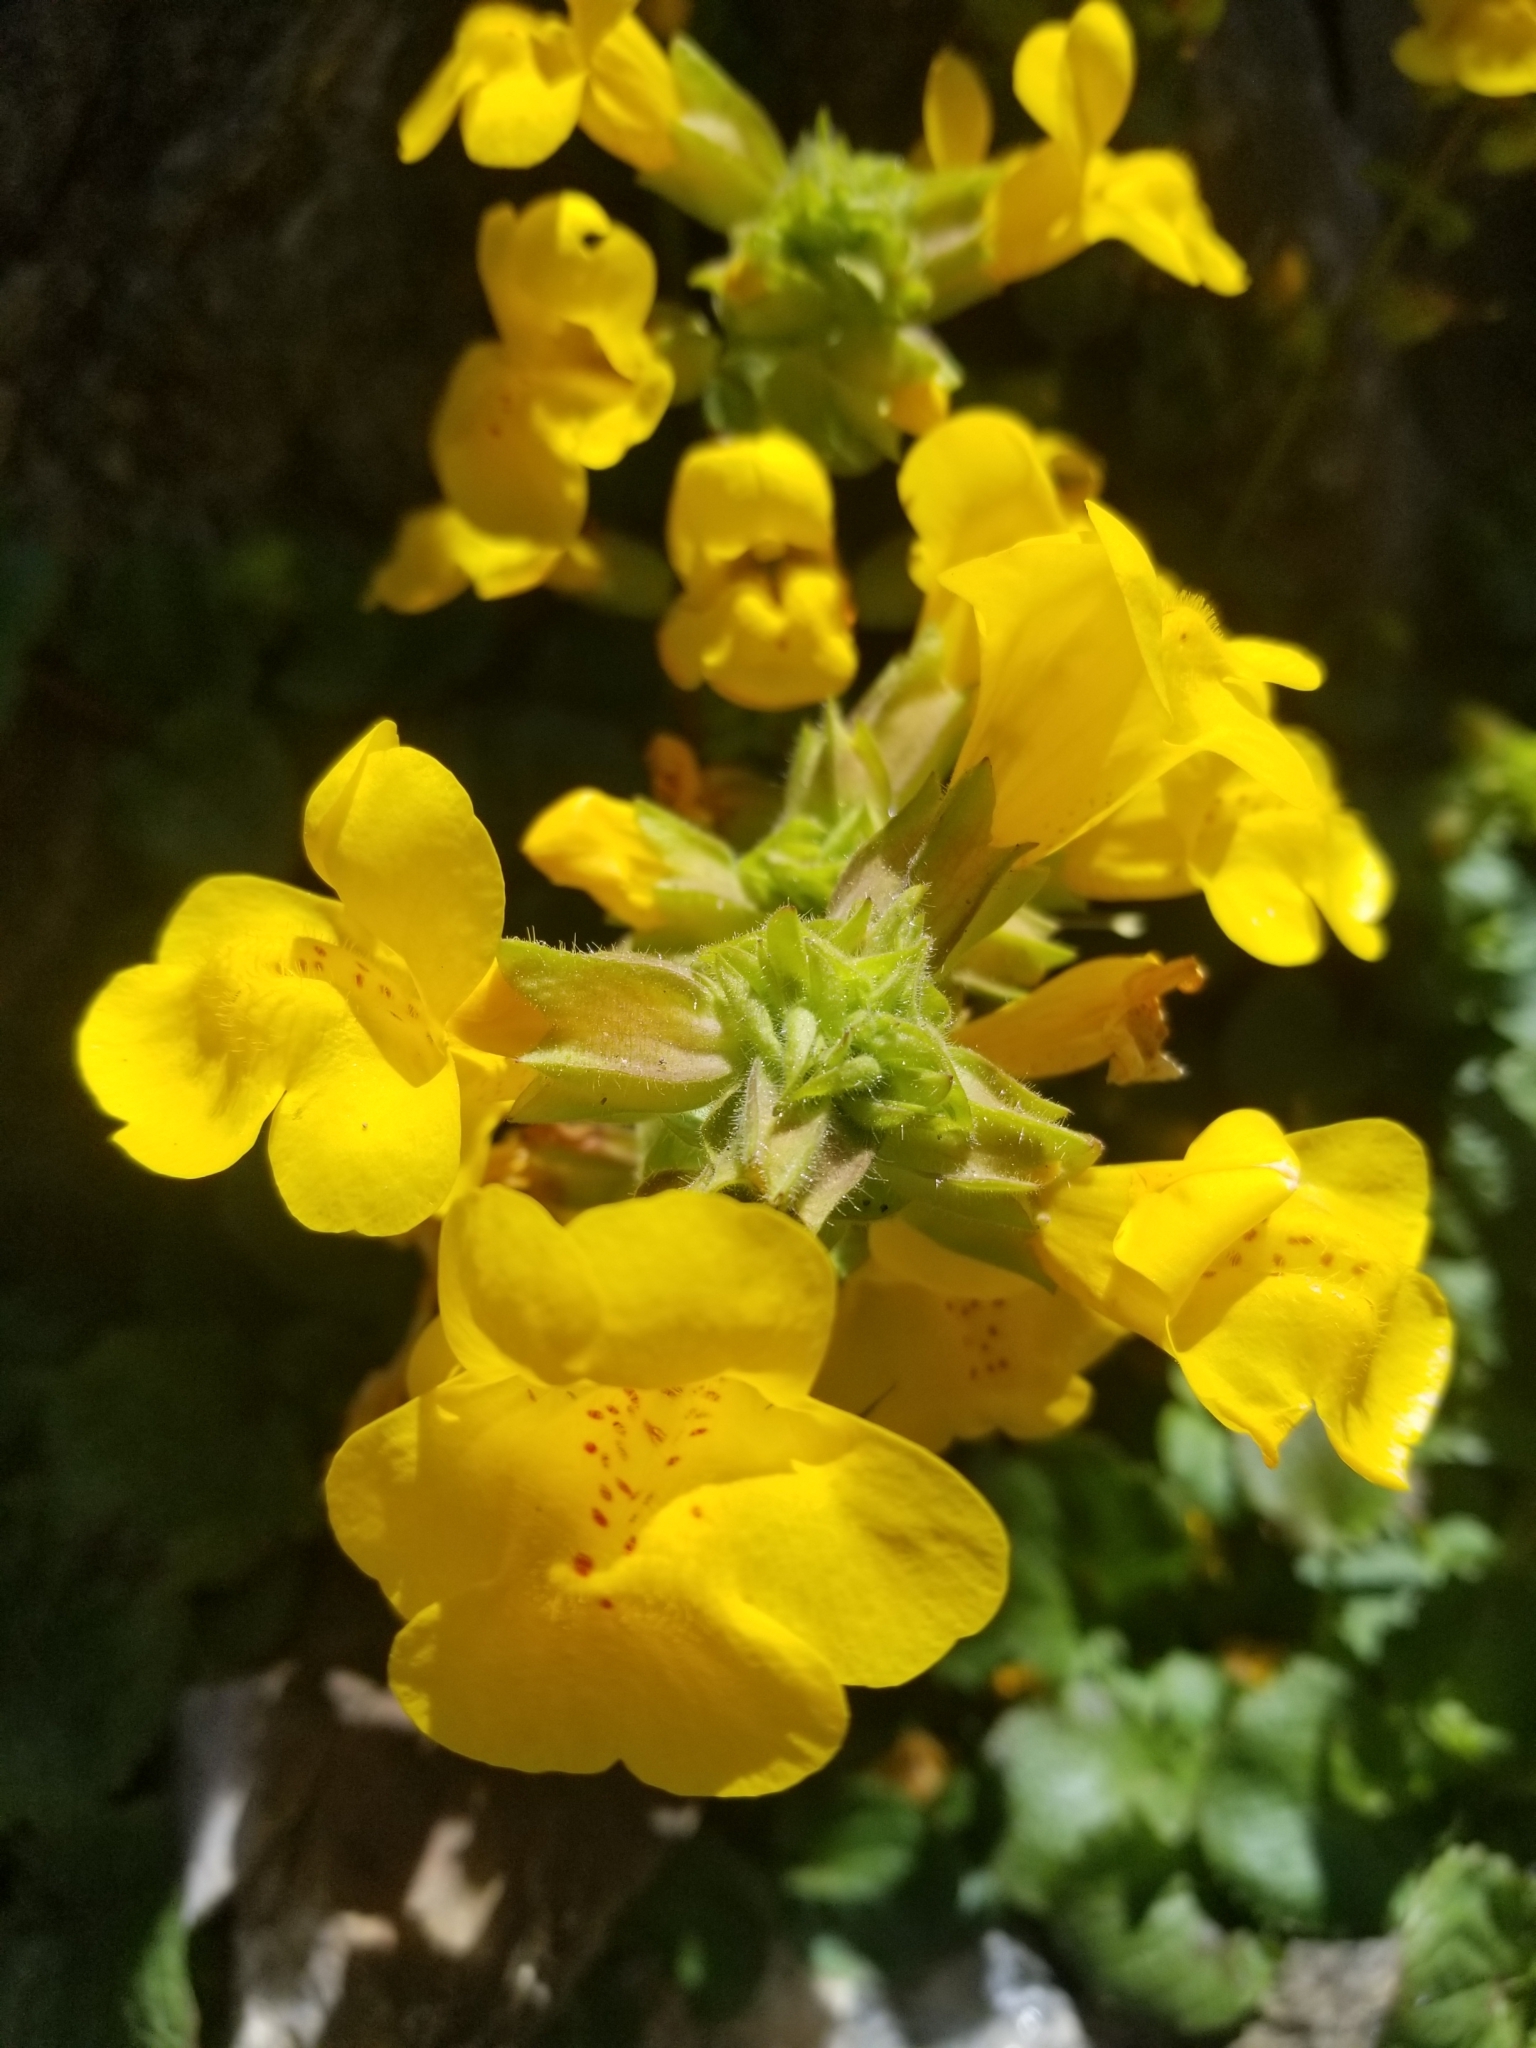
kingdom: Plantae
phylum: Tracheophyta
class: Magnoliopsida
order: Lamiales
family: Phrymaceae
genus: Erythranthe
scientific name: Erythranthe grandis
